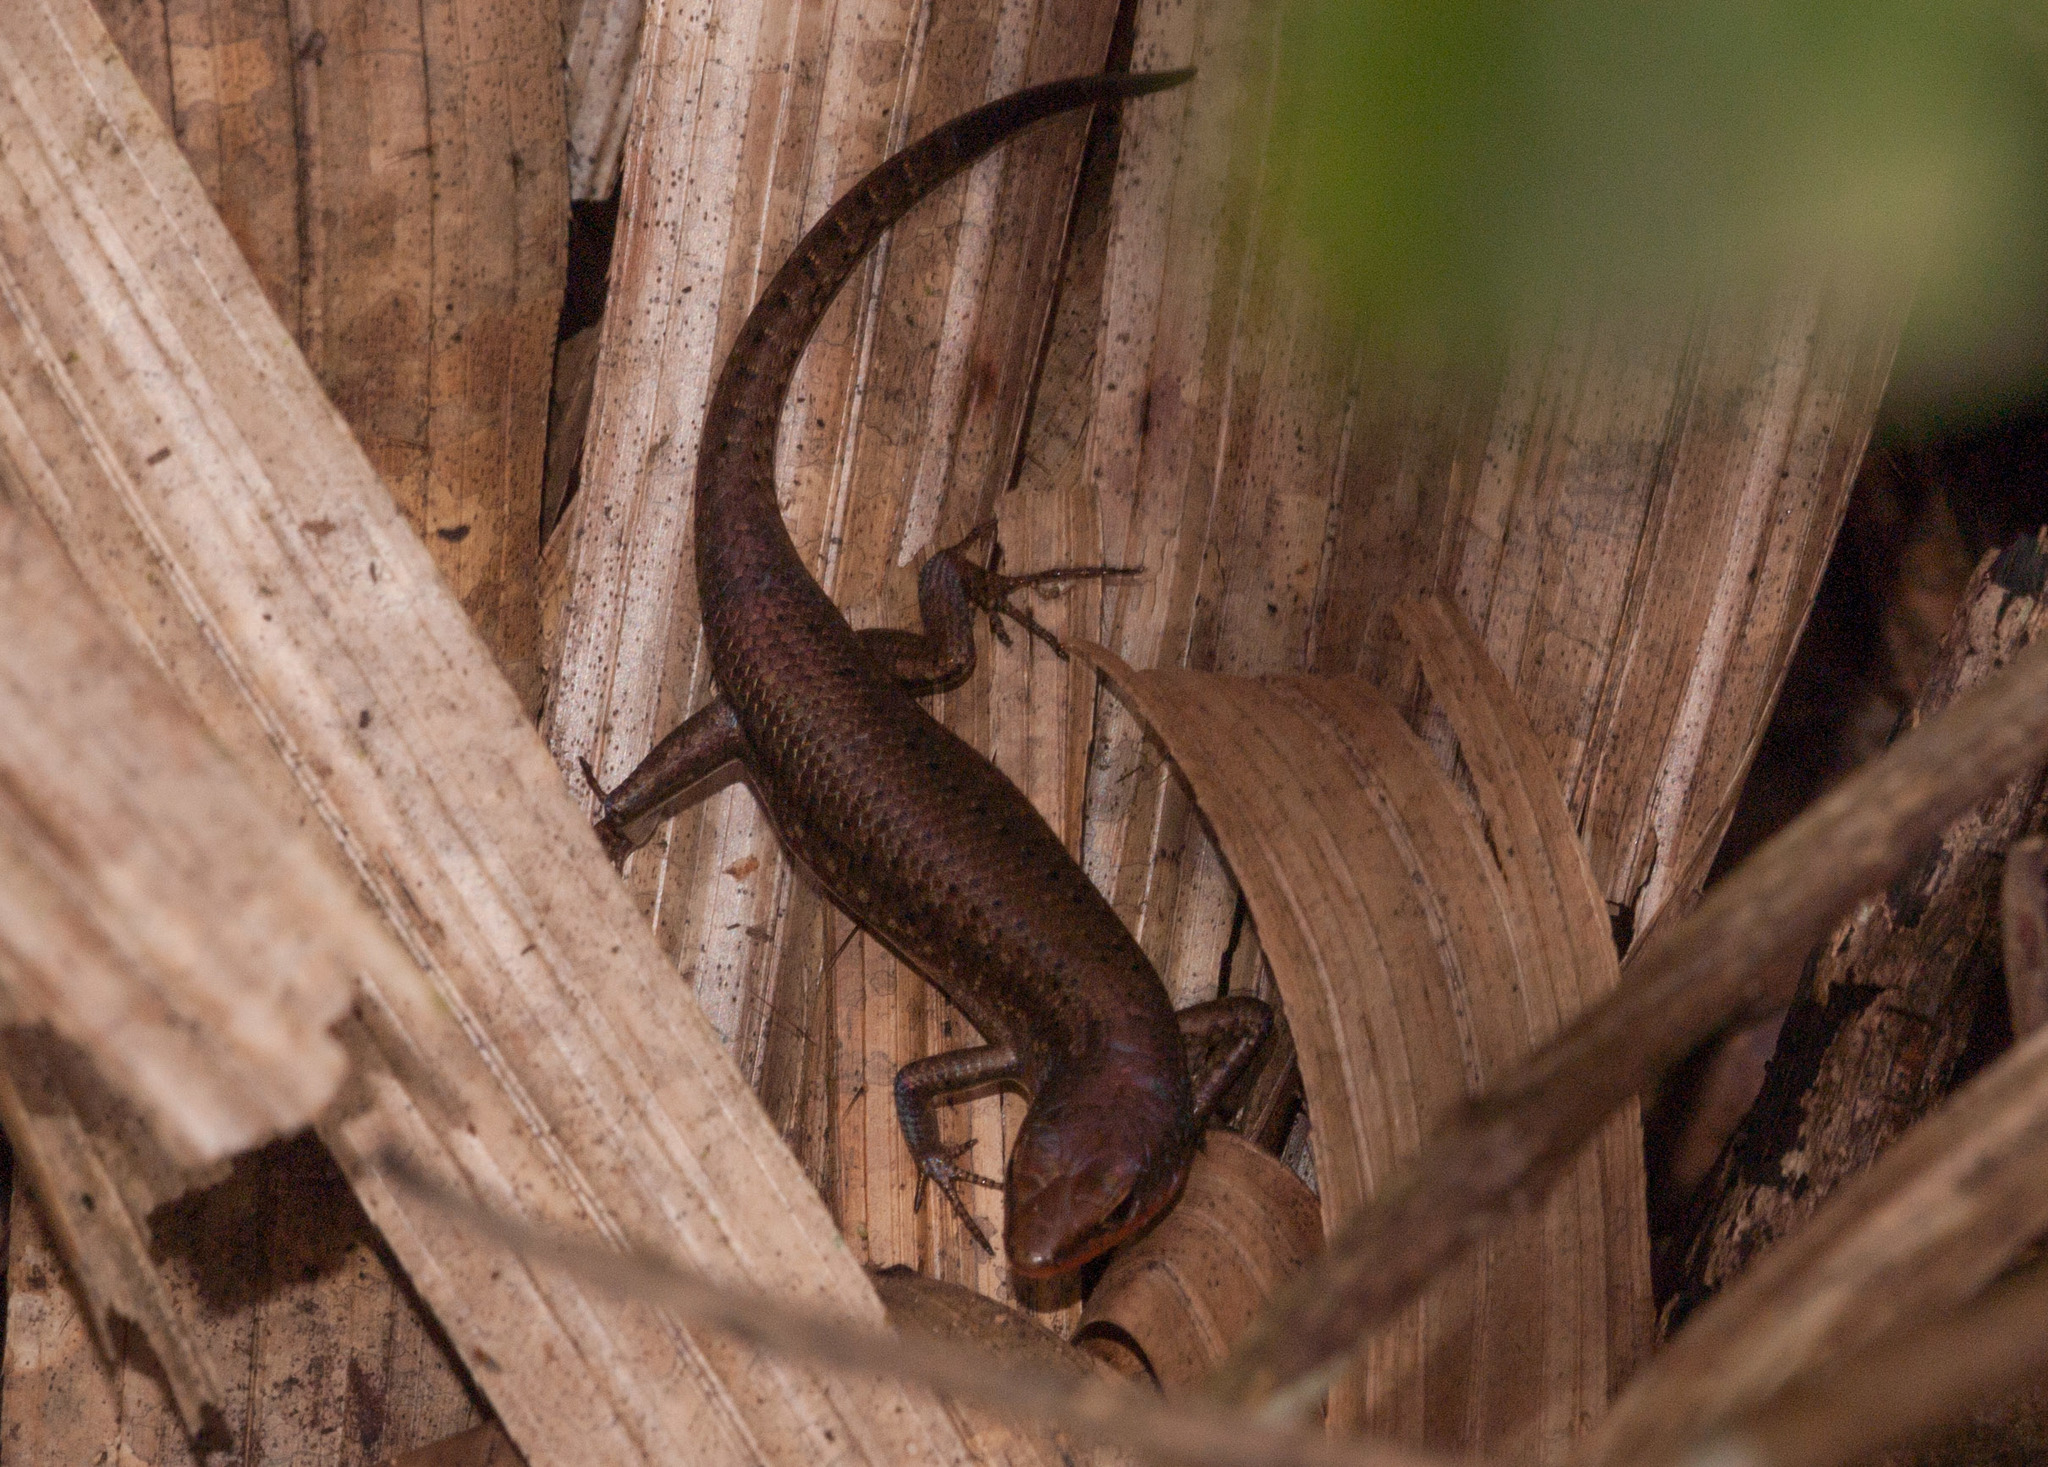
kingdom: Animalia
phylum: Chordata
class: Squamata
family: Scincidae
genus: Carlia
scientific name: Carlia crypta
